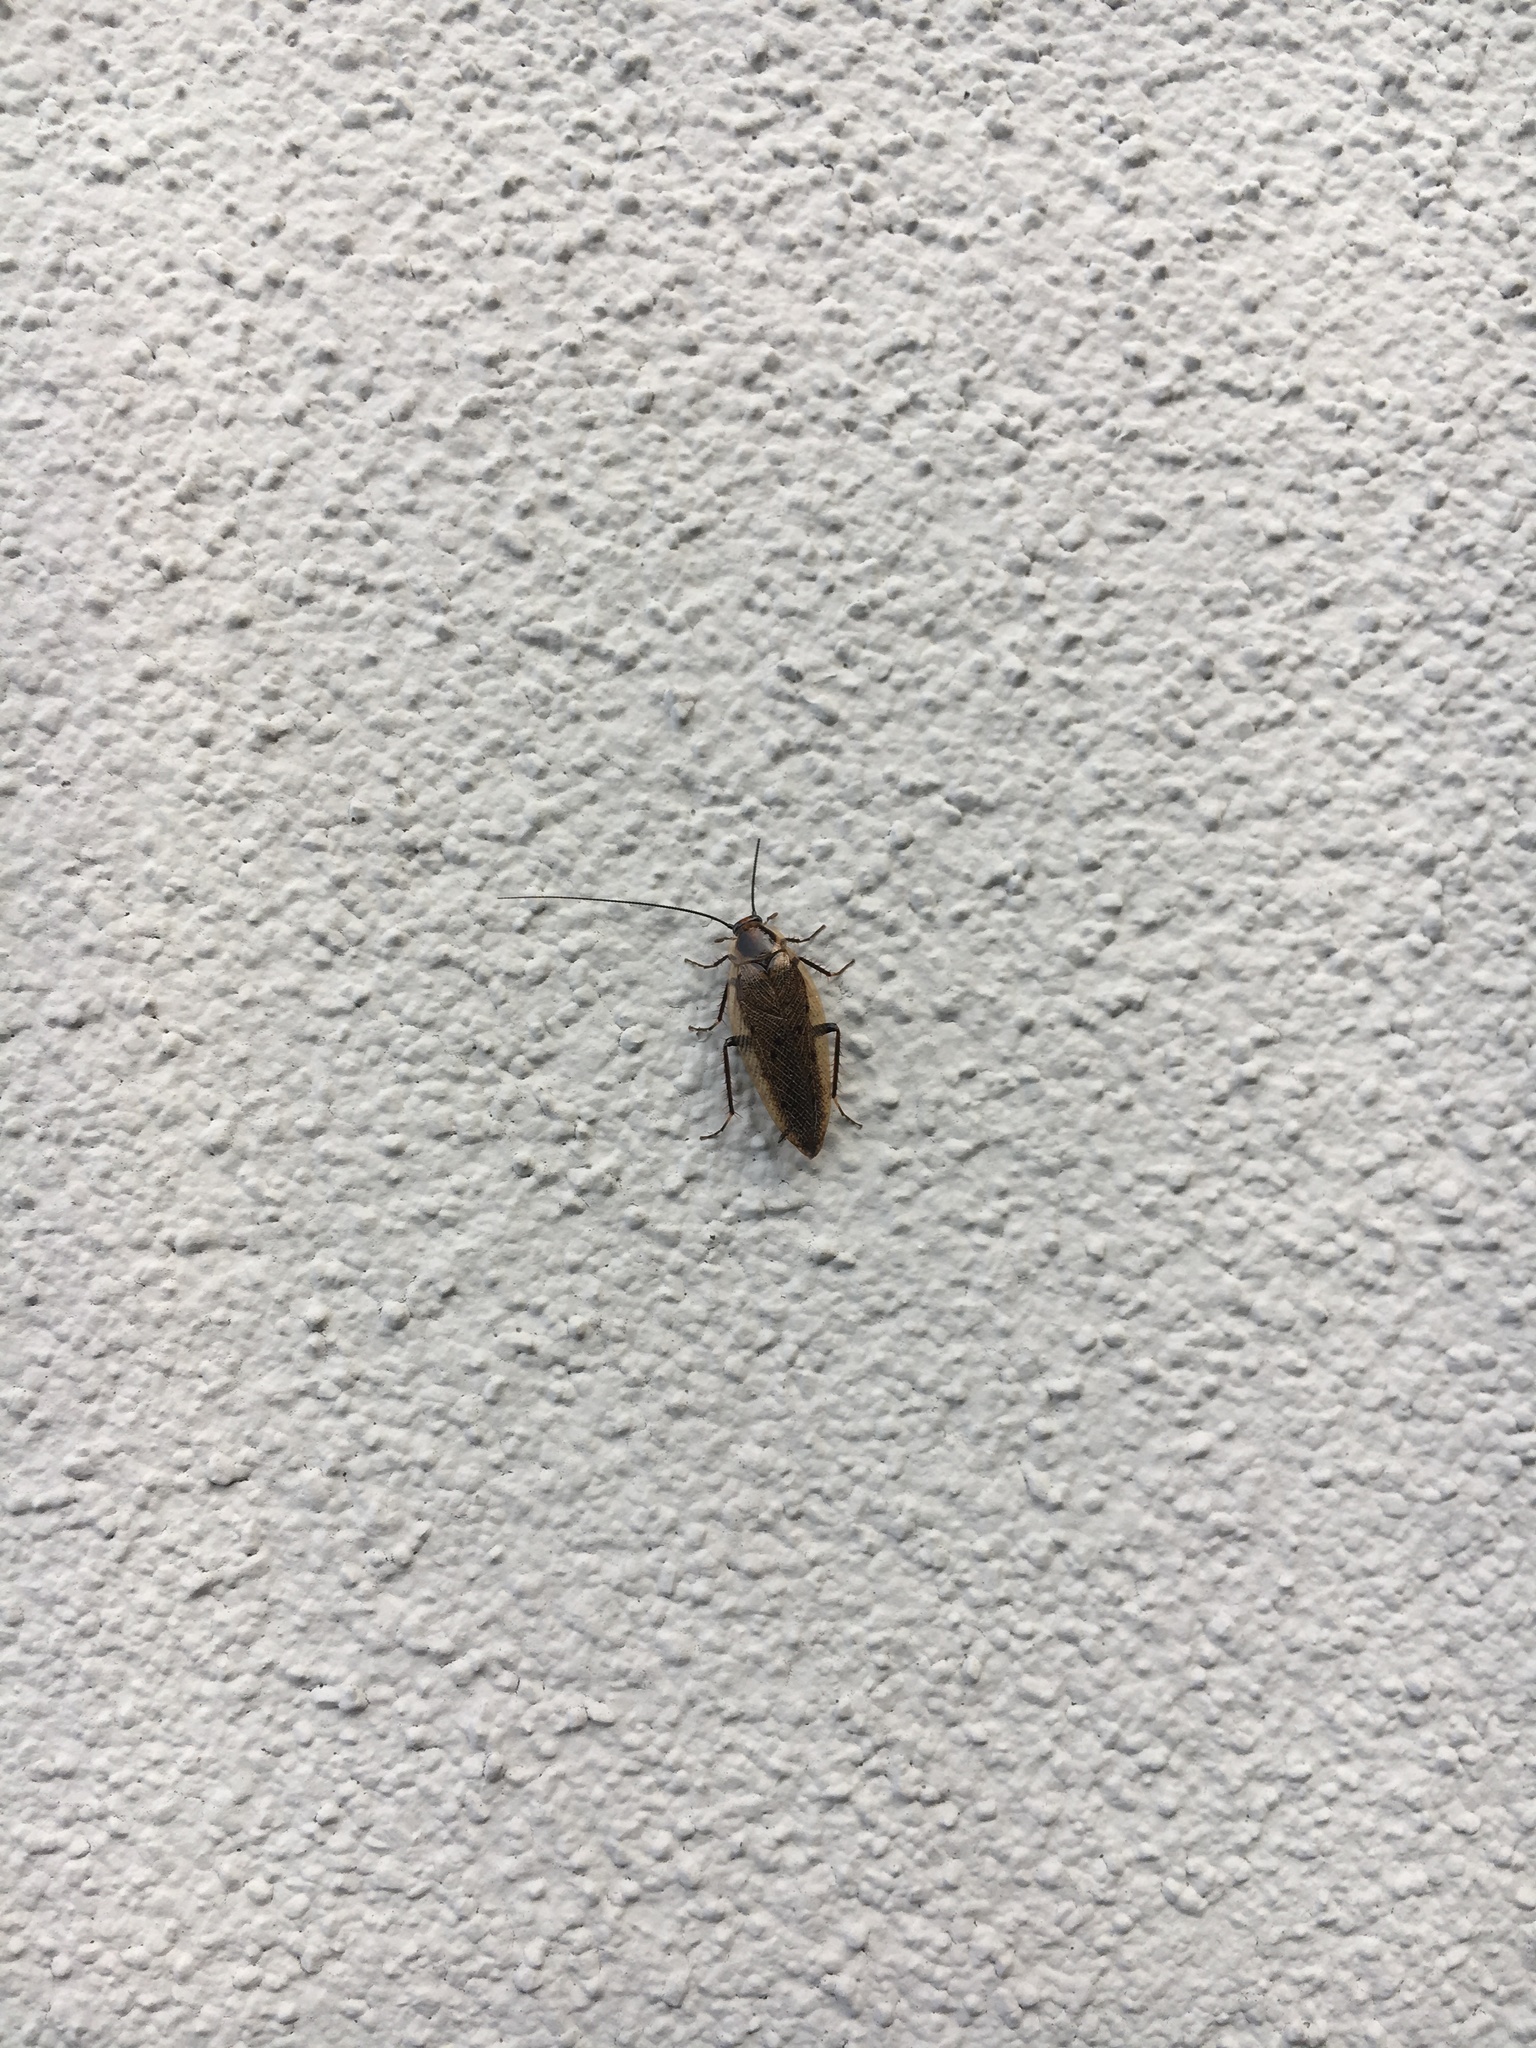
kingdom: Animalia
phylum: Arthropoda
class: Insecta
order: Blattodea
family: Ectobiidae
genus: Ectobius
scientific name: Ectobius lapponicus
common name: Dusky cockroach
